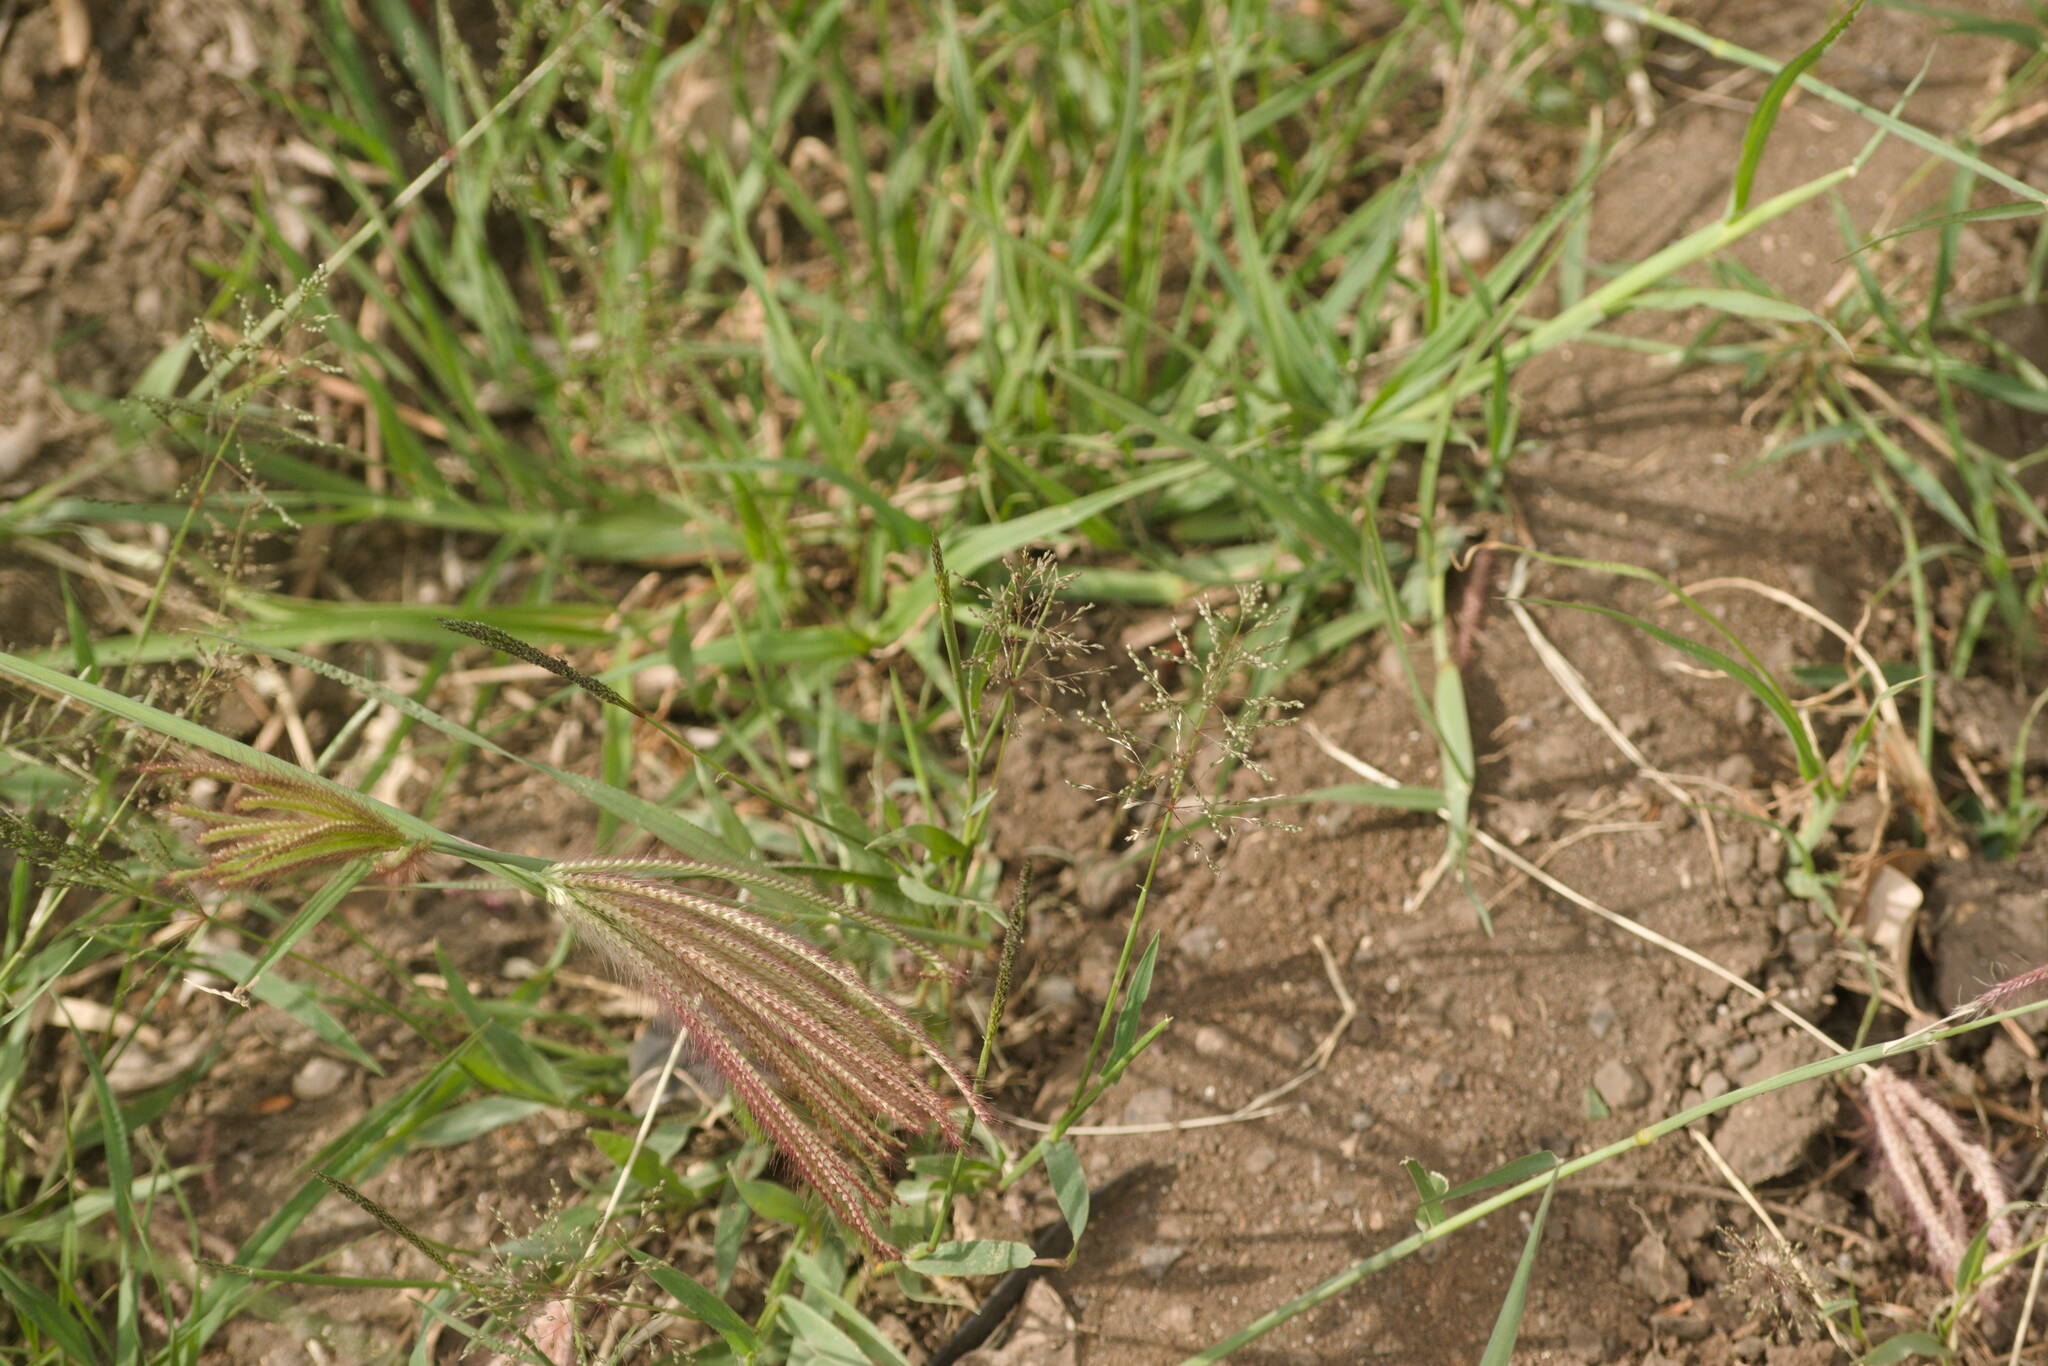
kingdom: Plantae
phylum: Tracheophyta
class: Liliopsida
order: Poales
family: Poaceae
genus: Sporobolus
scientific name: Sporobolus coromandelianus
